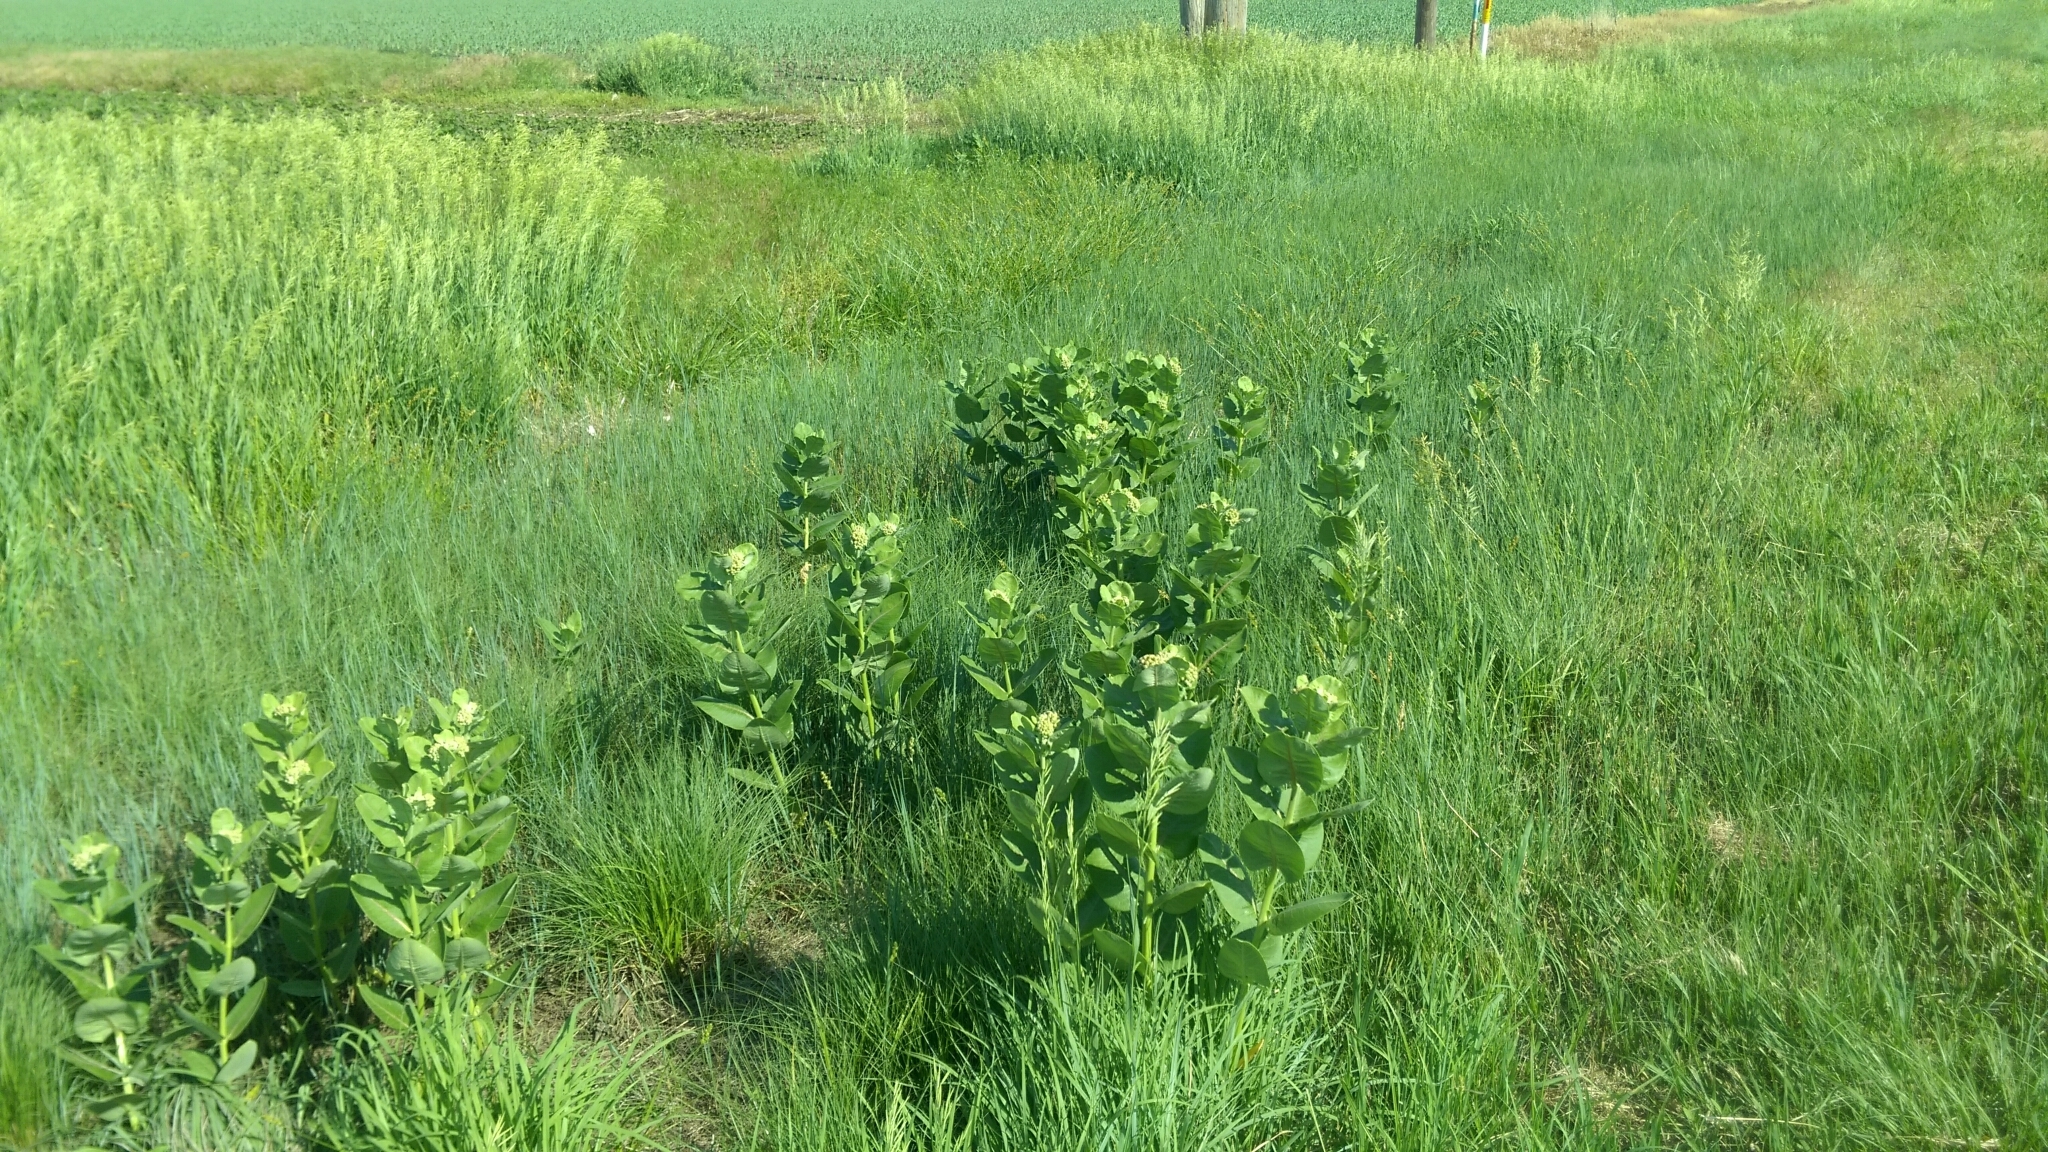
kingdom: Plantae
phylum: Tracheophyta
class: Magnoliopsida
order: Gentianales
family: Apocynaceae
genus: Asclepias
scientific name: Asclepias speciosa
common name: Showy milkweed
